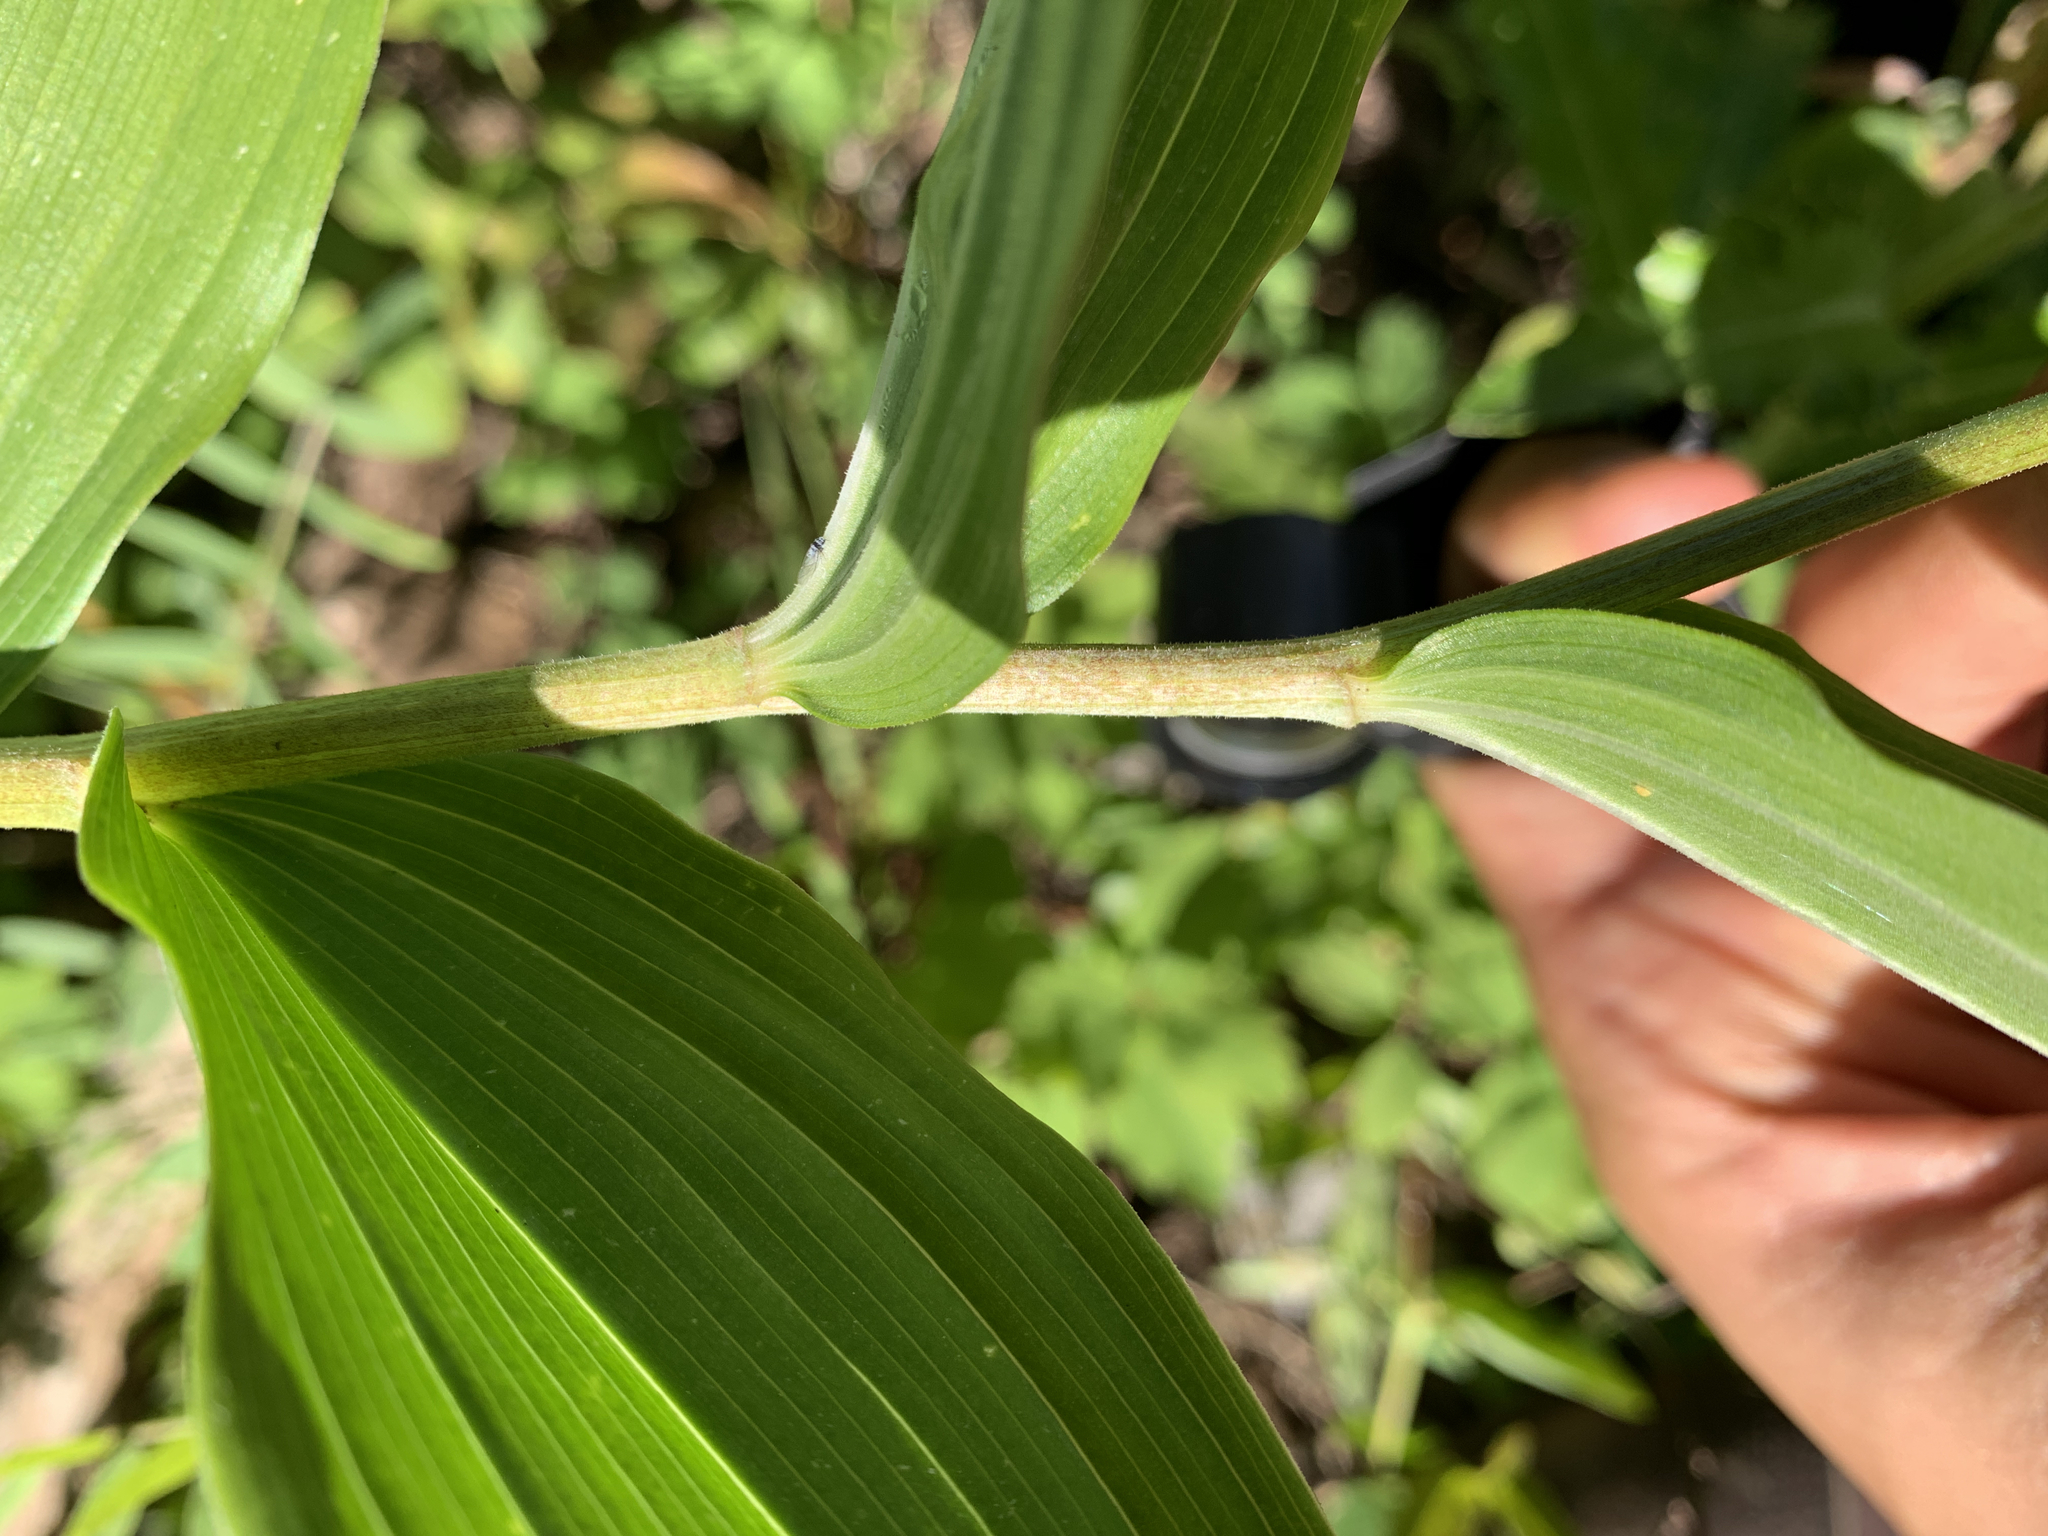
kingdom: Plantae
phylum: Tracheophyta
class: Liliopsida
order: Asparagales
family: Asparagaceae
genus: Maianthemum
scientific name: Maianthemum racemosum
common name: False spikenard
